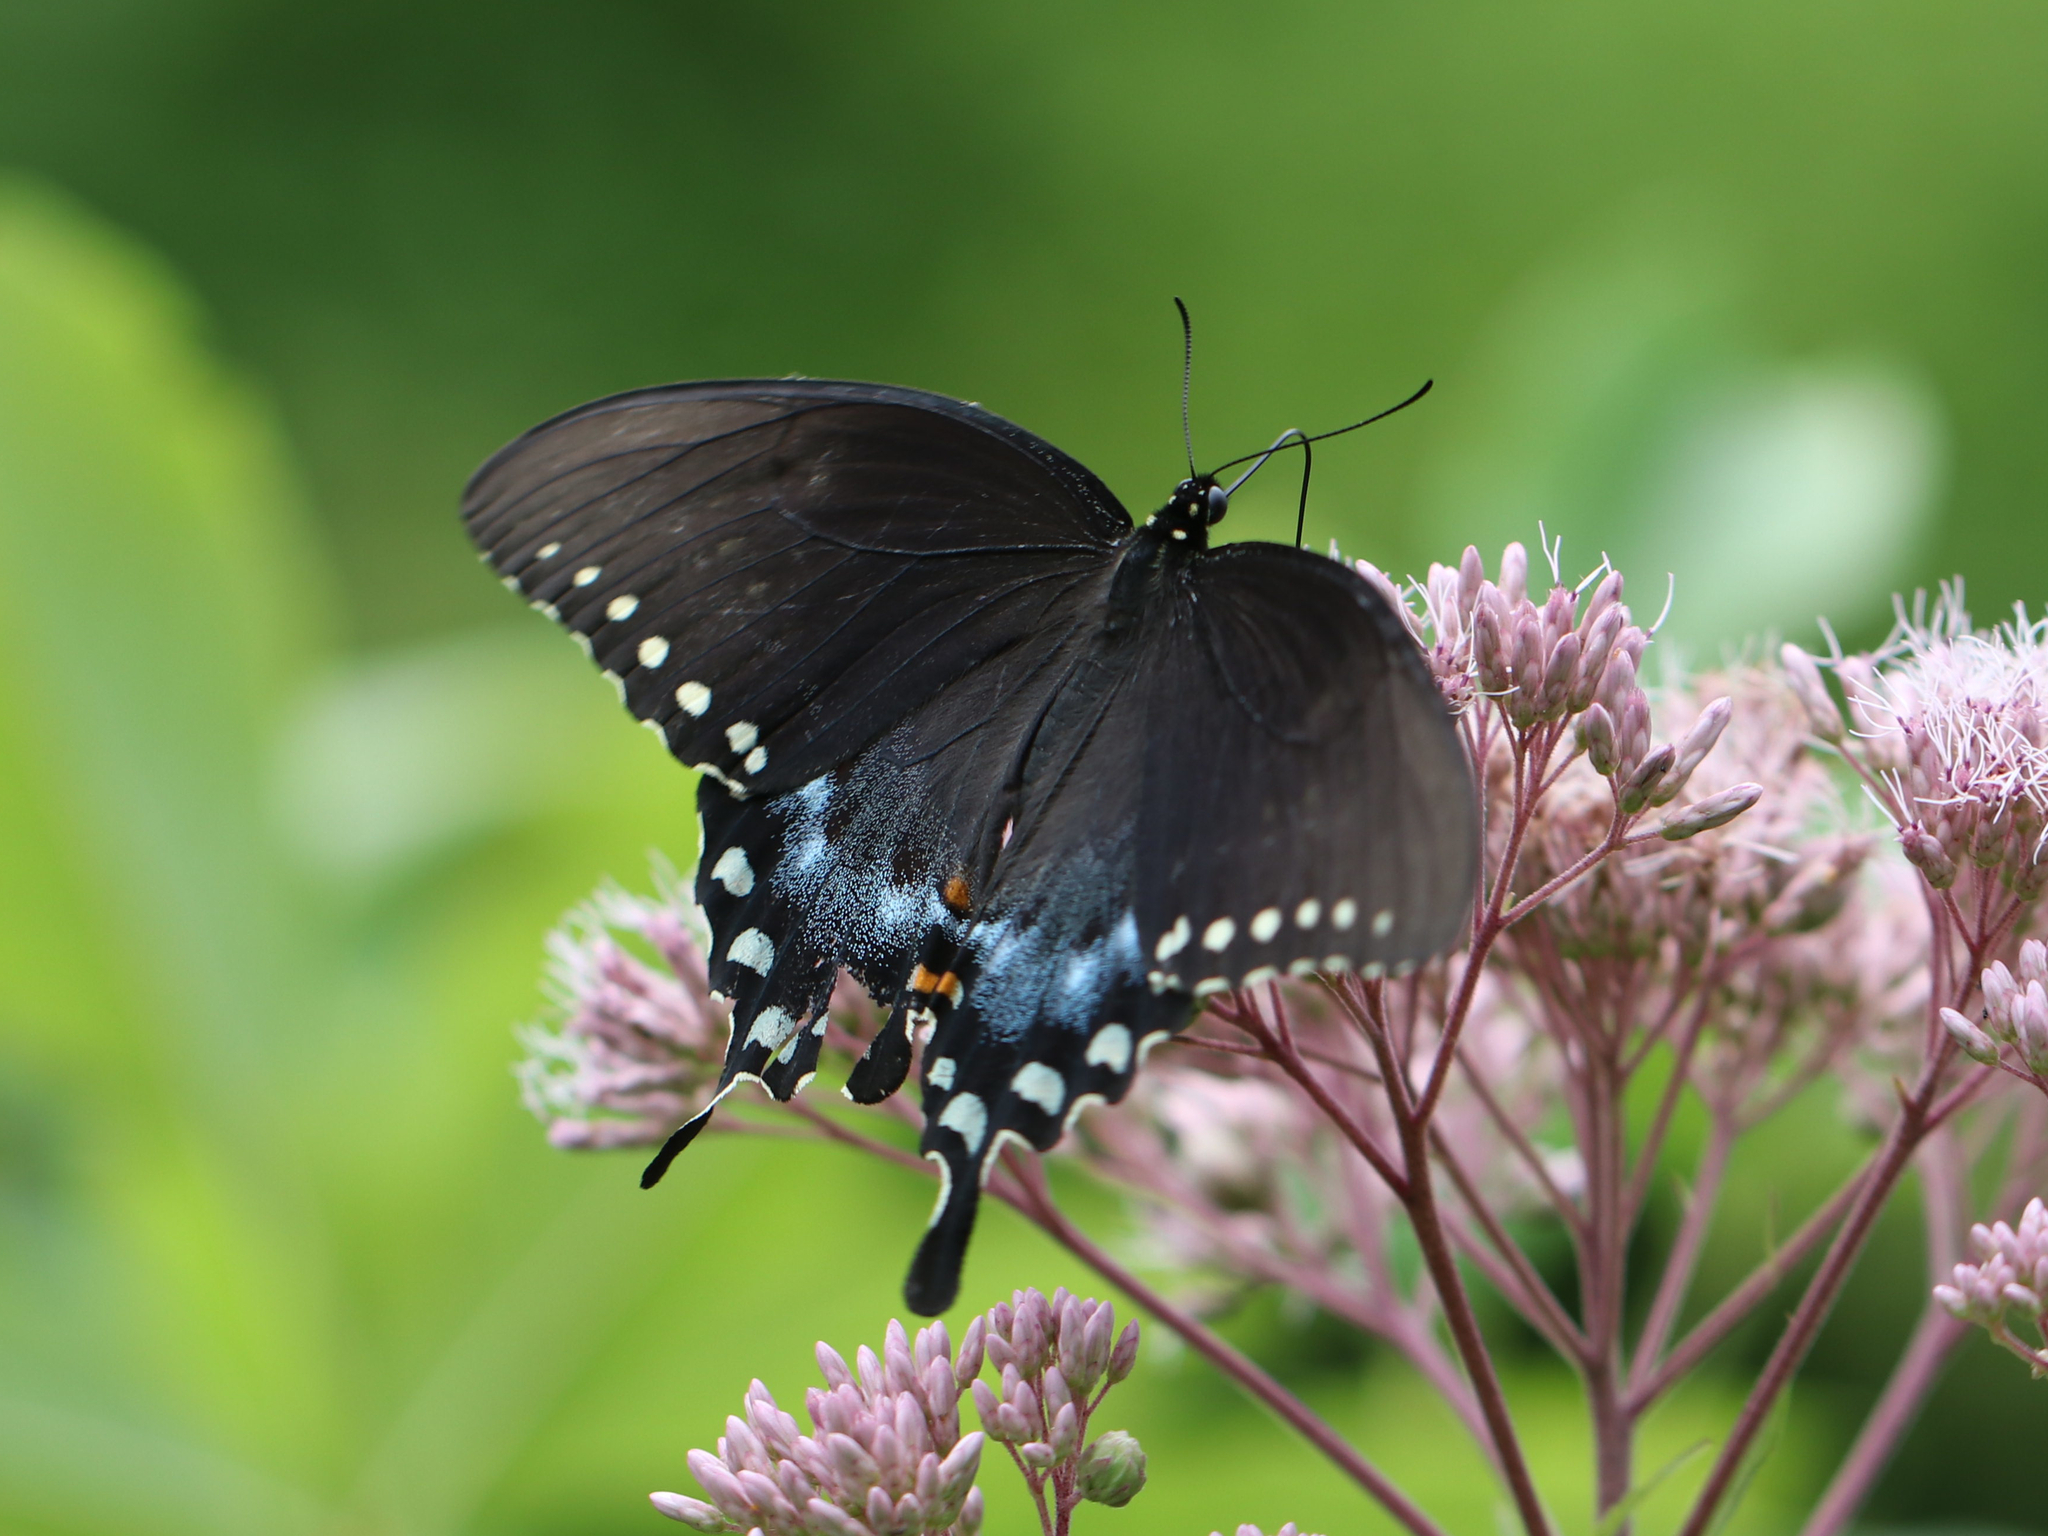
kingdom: Animalia
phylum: Arthropoda
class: Insecta
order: Lepidoptera
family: Papilionidae
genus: Papilio
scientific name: Papilio troilus
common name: Spicebush swallowtail
